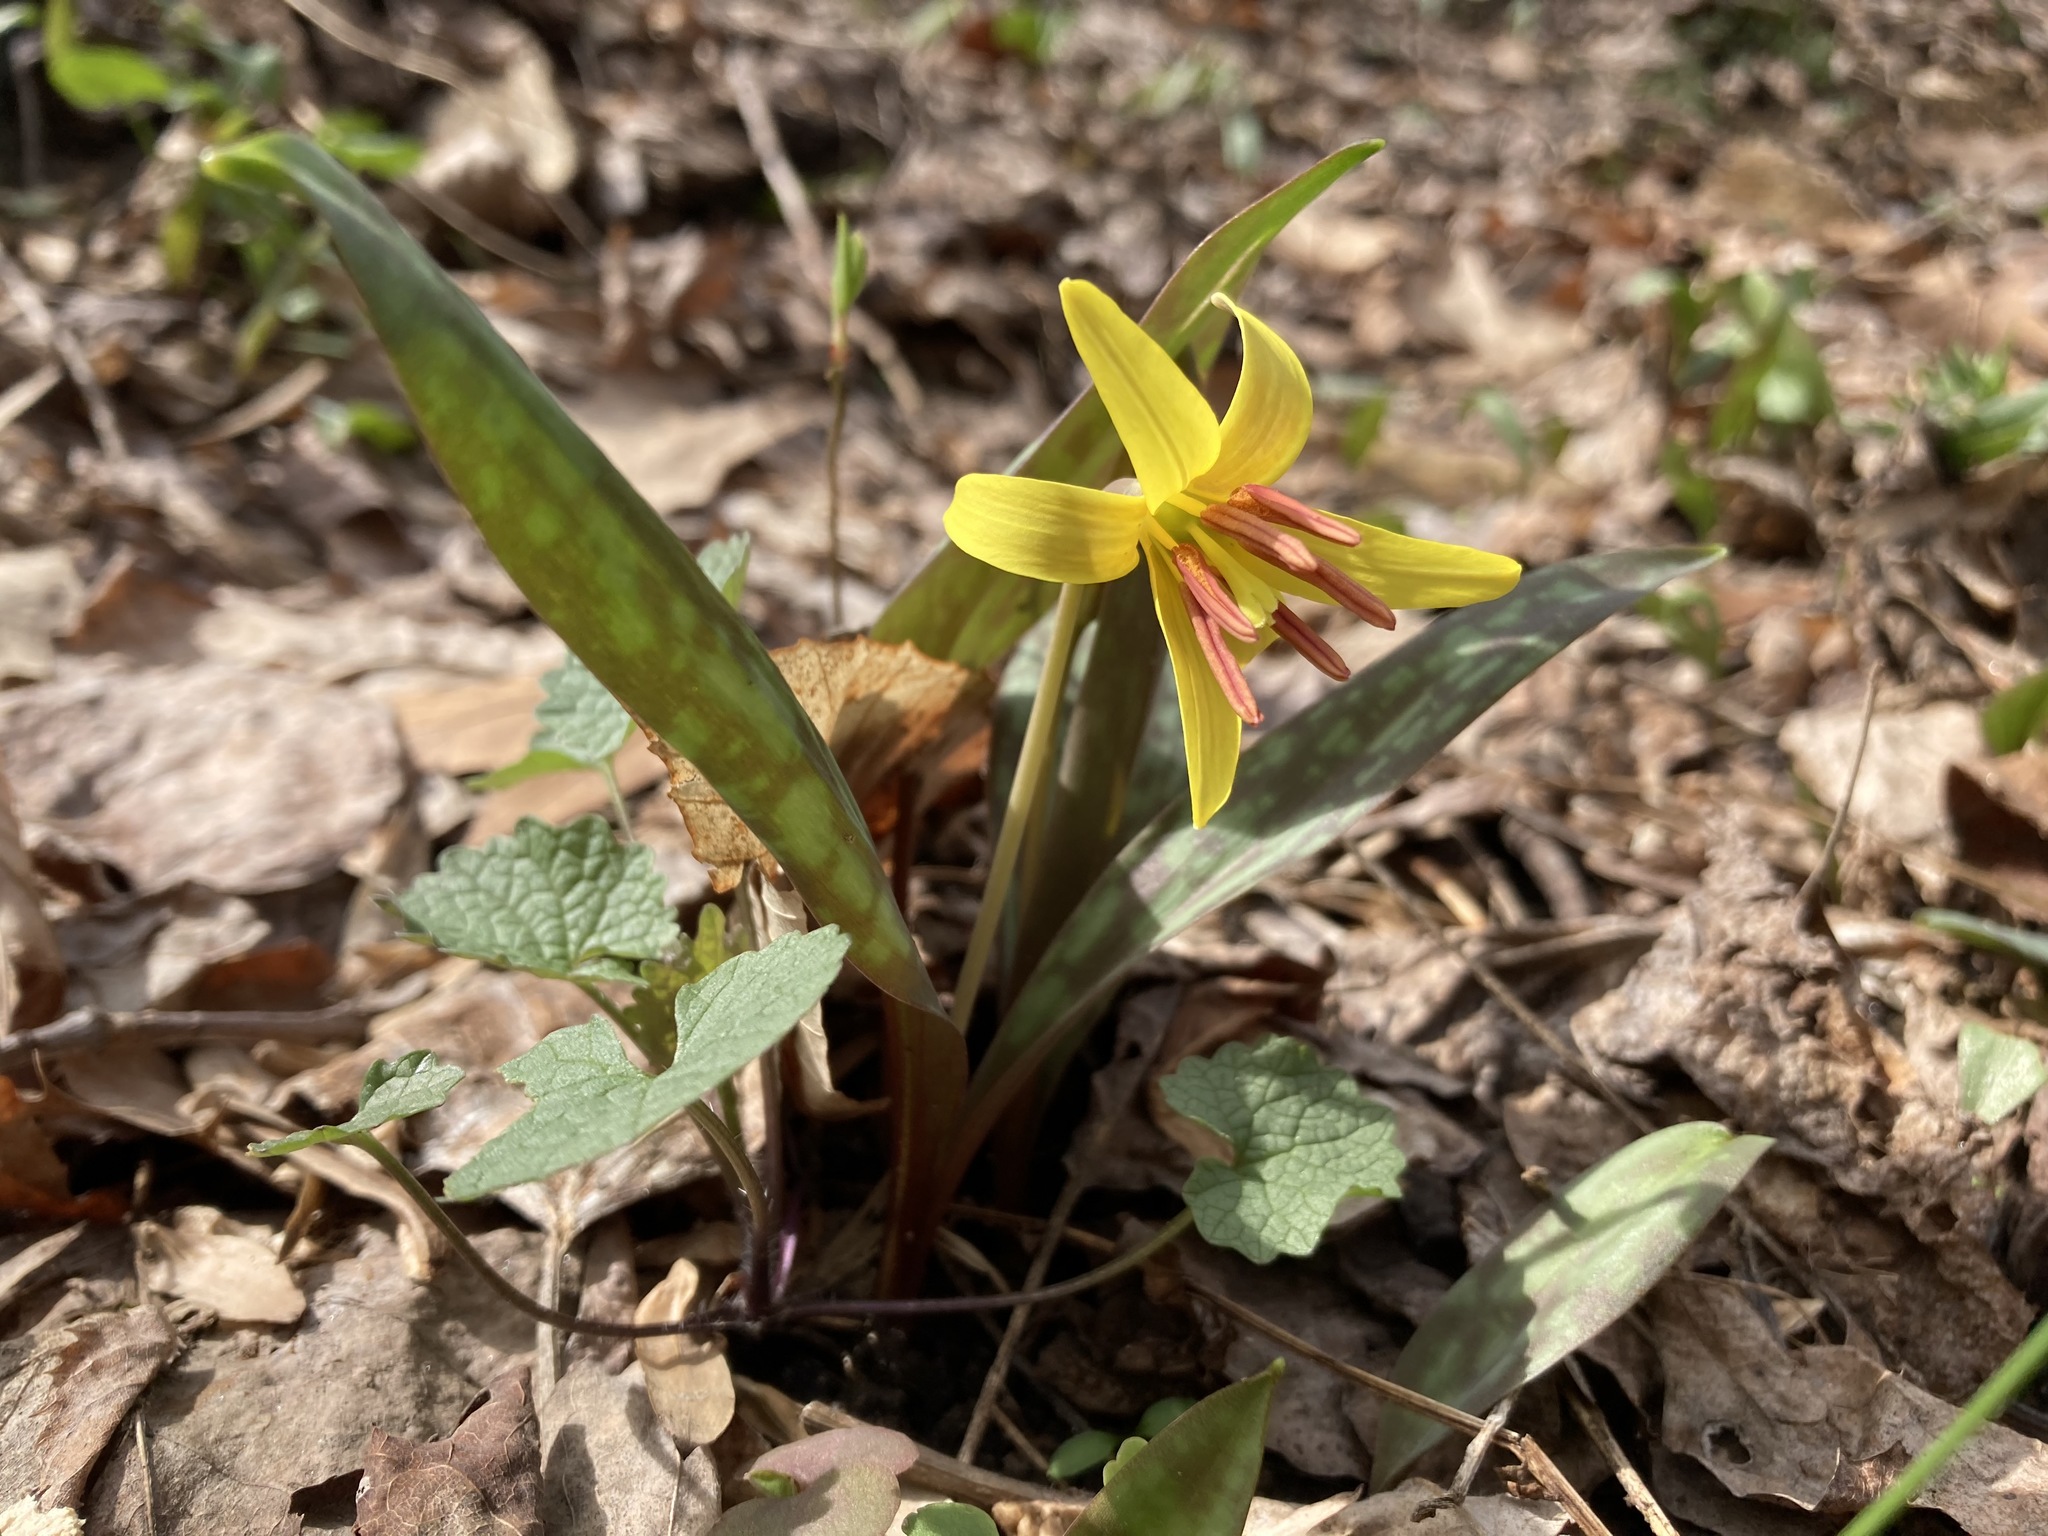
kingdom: Plantae
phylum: Tracheophyta
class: Liliopsida
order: Liliales
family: Liliaceae
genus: Erythronium
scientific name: Erythronium americanum
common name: Yellow adder's-tongue
